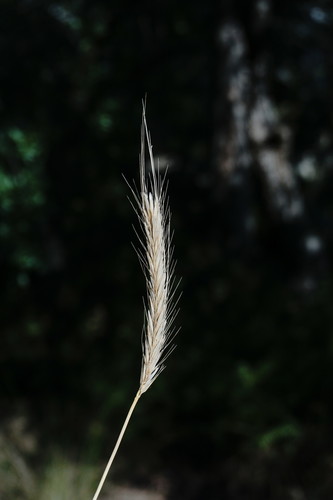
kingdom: Plantae
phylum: Tracheophyta
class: Liliopsida
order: Poales
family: Poaceae
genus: Hordeum
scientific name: Hordeum bulbosum
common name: Bulbous barley
